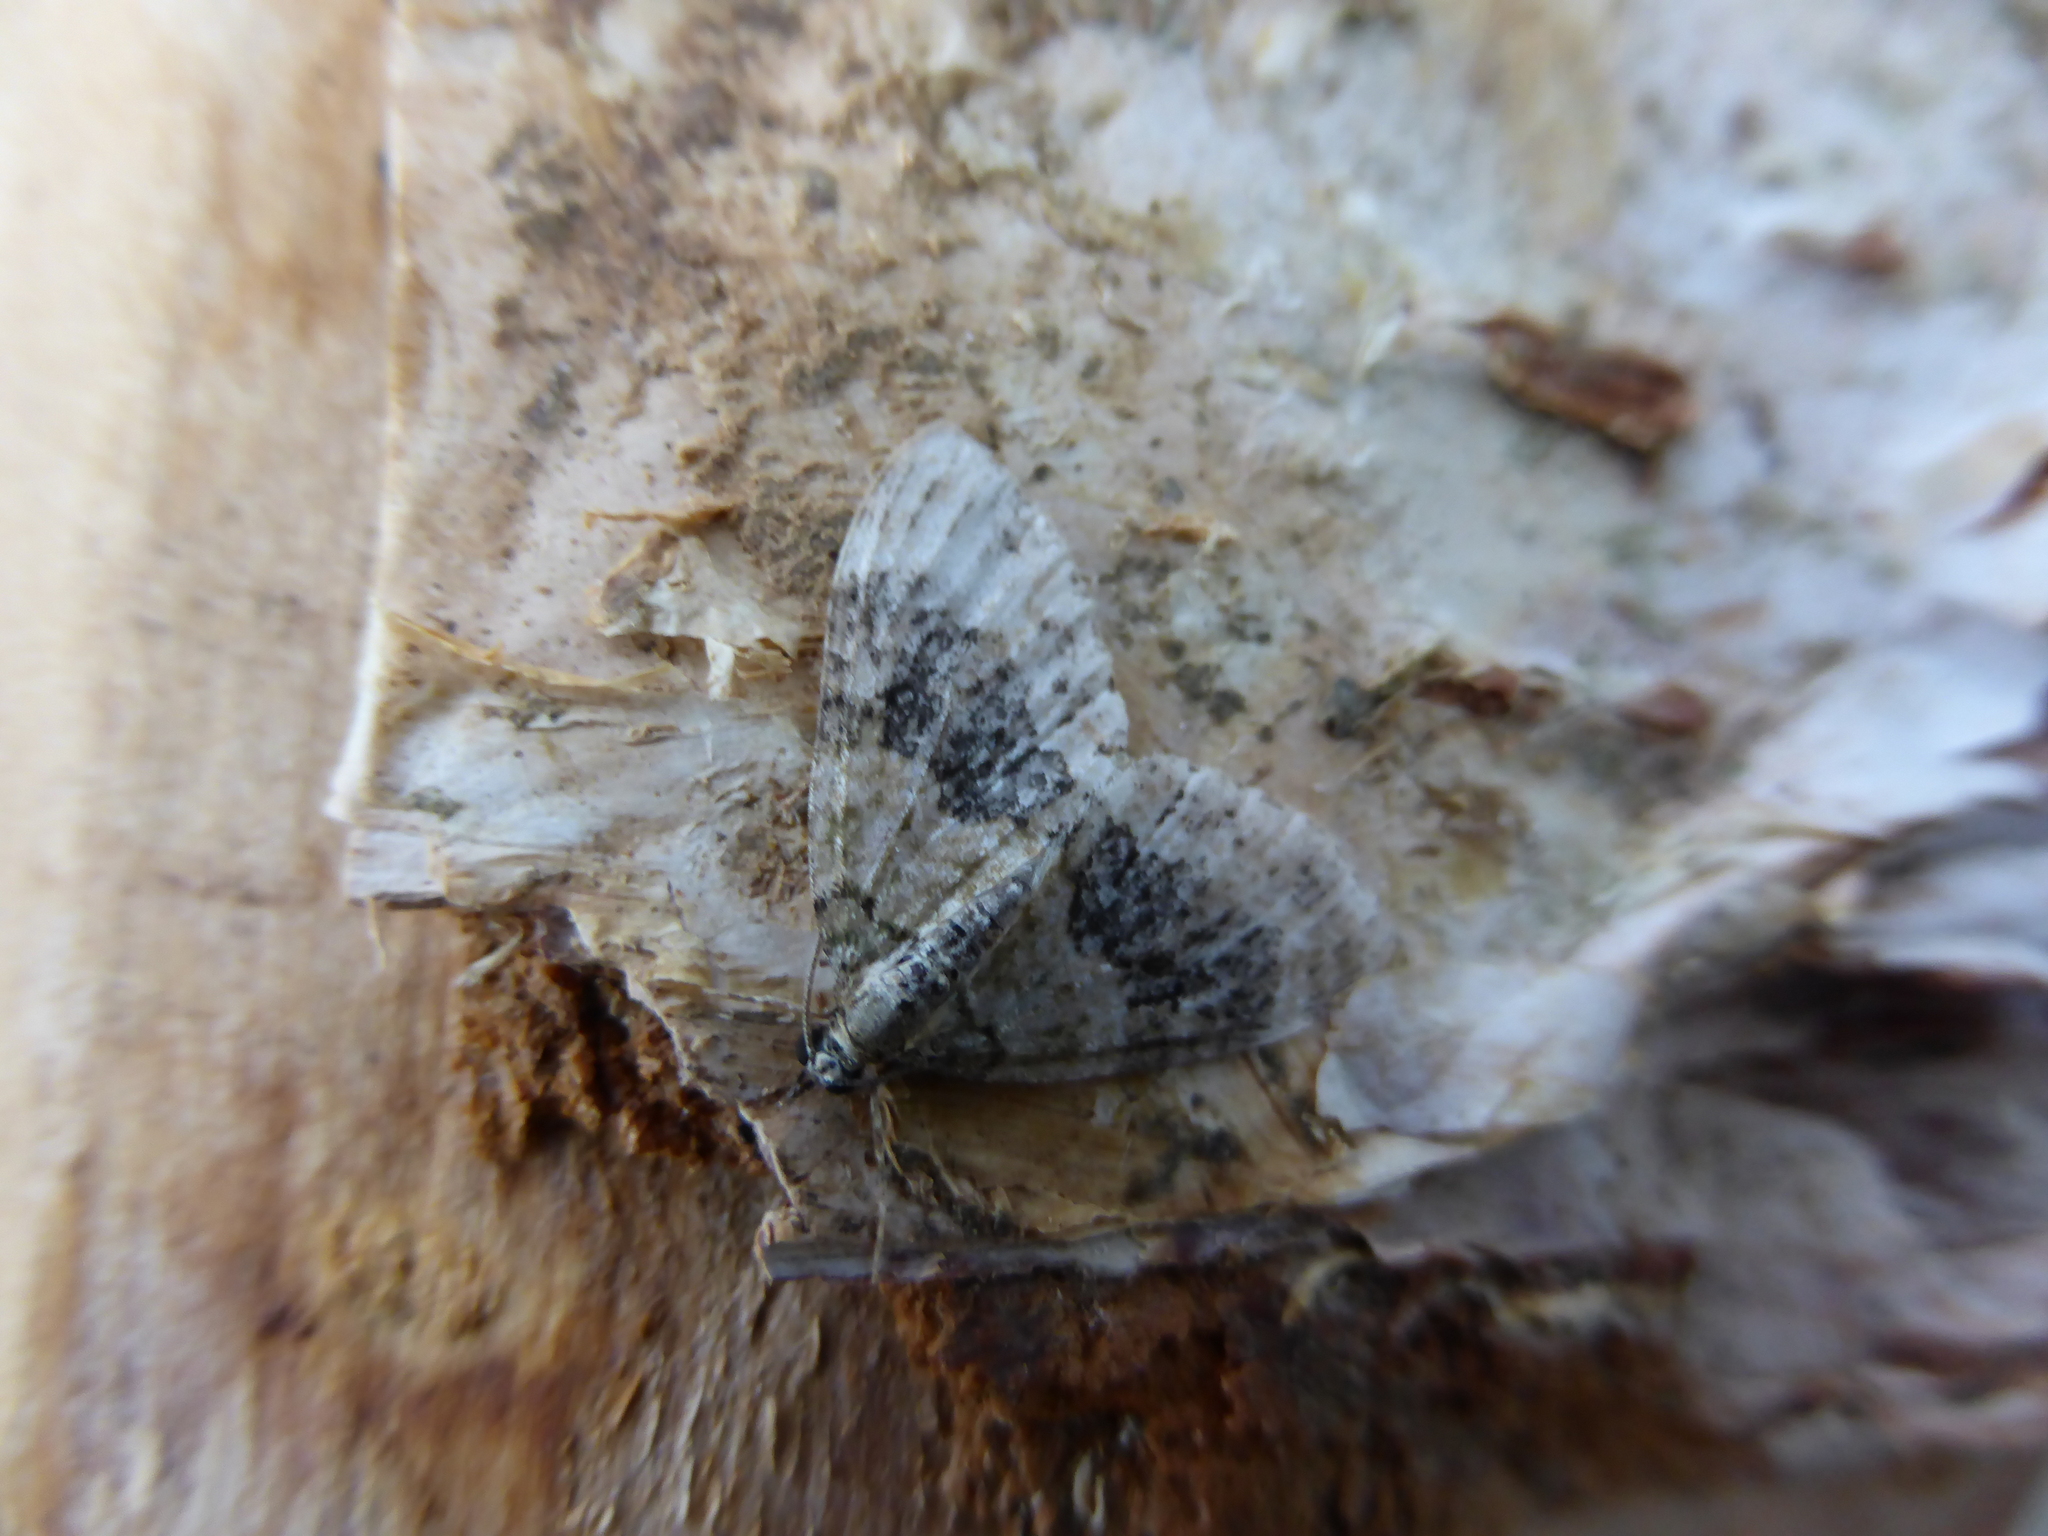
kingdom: Animalia
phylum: Arthropoda
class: Insecta
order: Lepidoptera
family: Geometridae
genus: Acasis
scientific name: Acasis viretata
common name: Yellow-barred brindle
